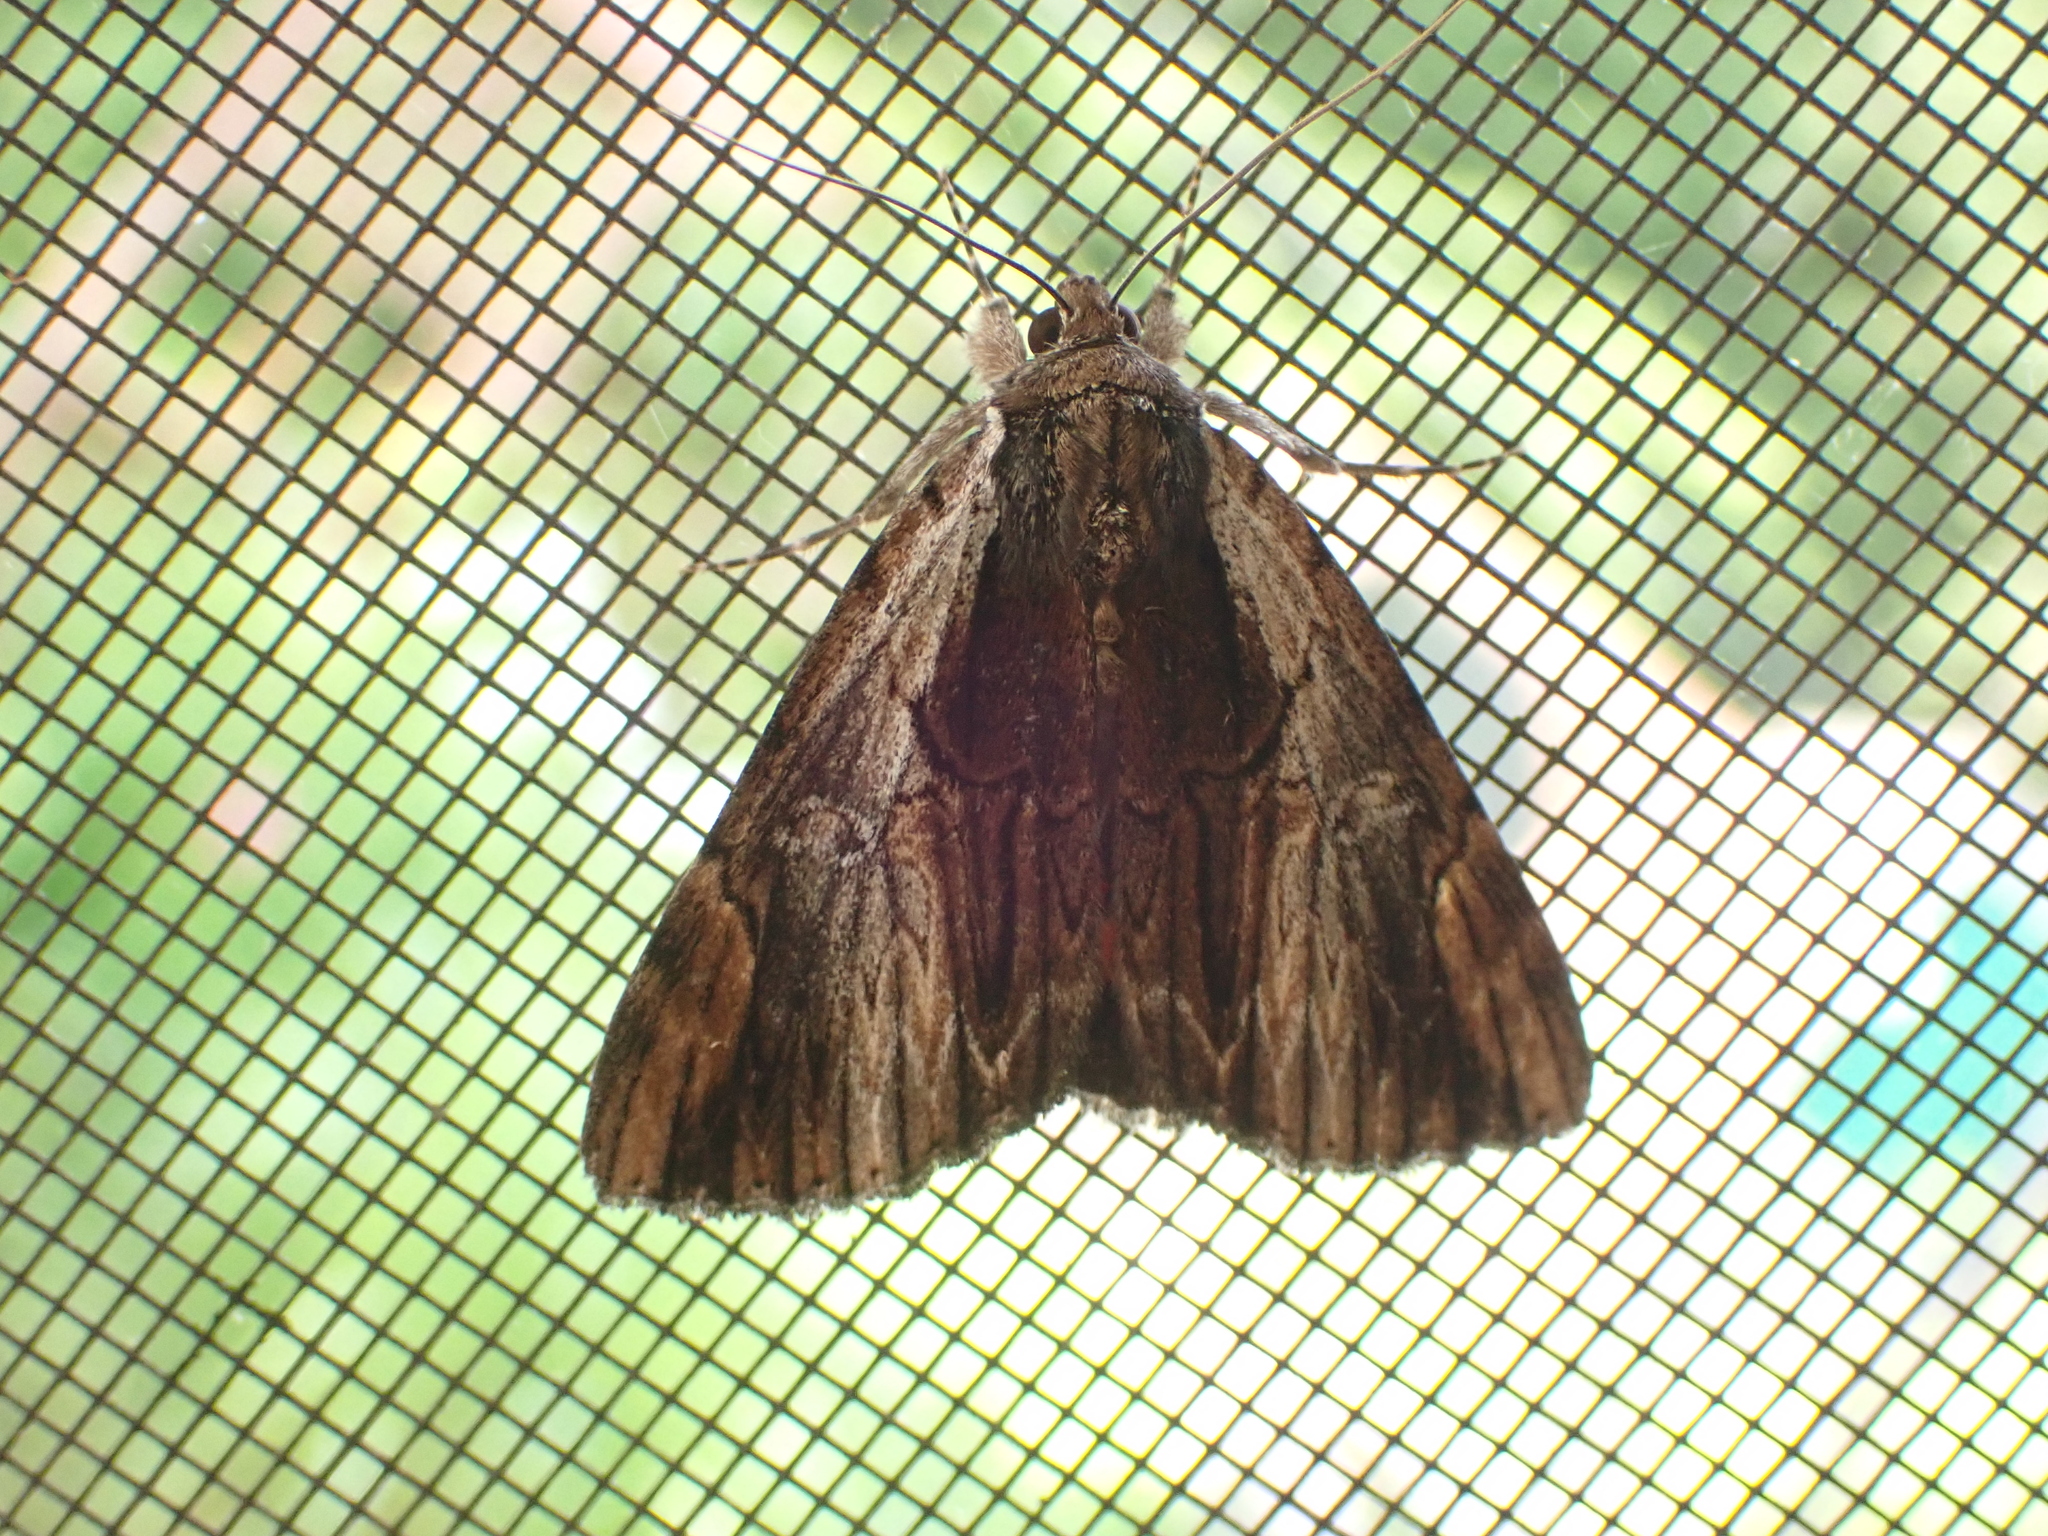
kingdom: Animalia
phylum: Arthropoda
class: Insecta
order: Lepidoptera
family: Erebidae
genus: Catocala
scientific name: Catocala ultronia
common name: Ultronia underwing
